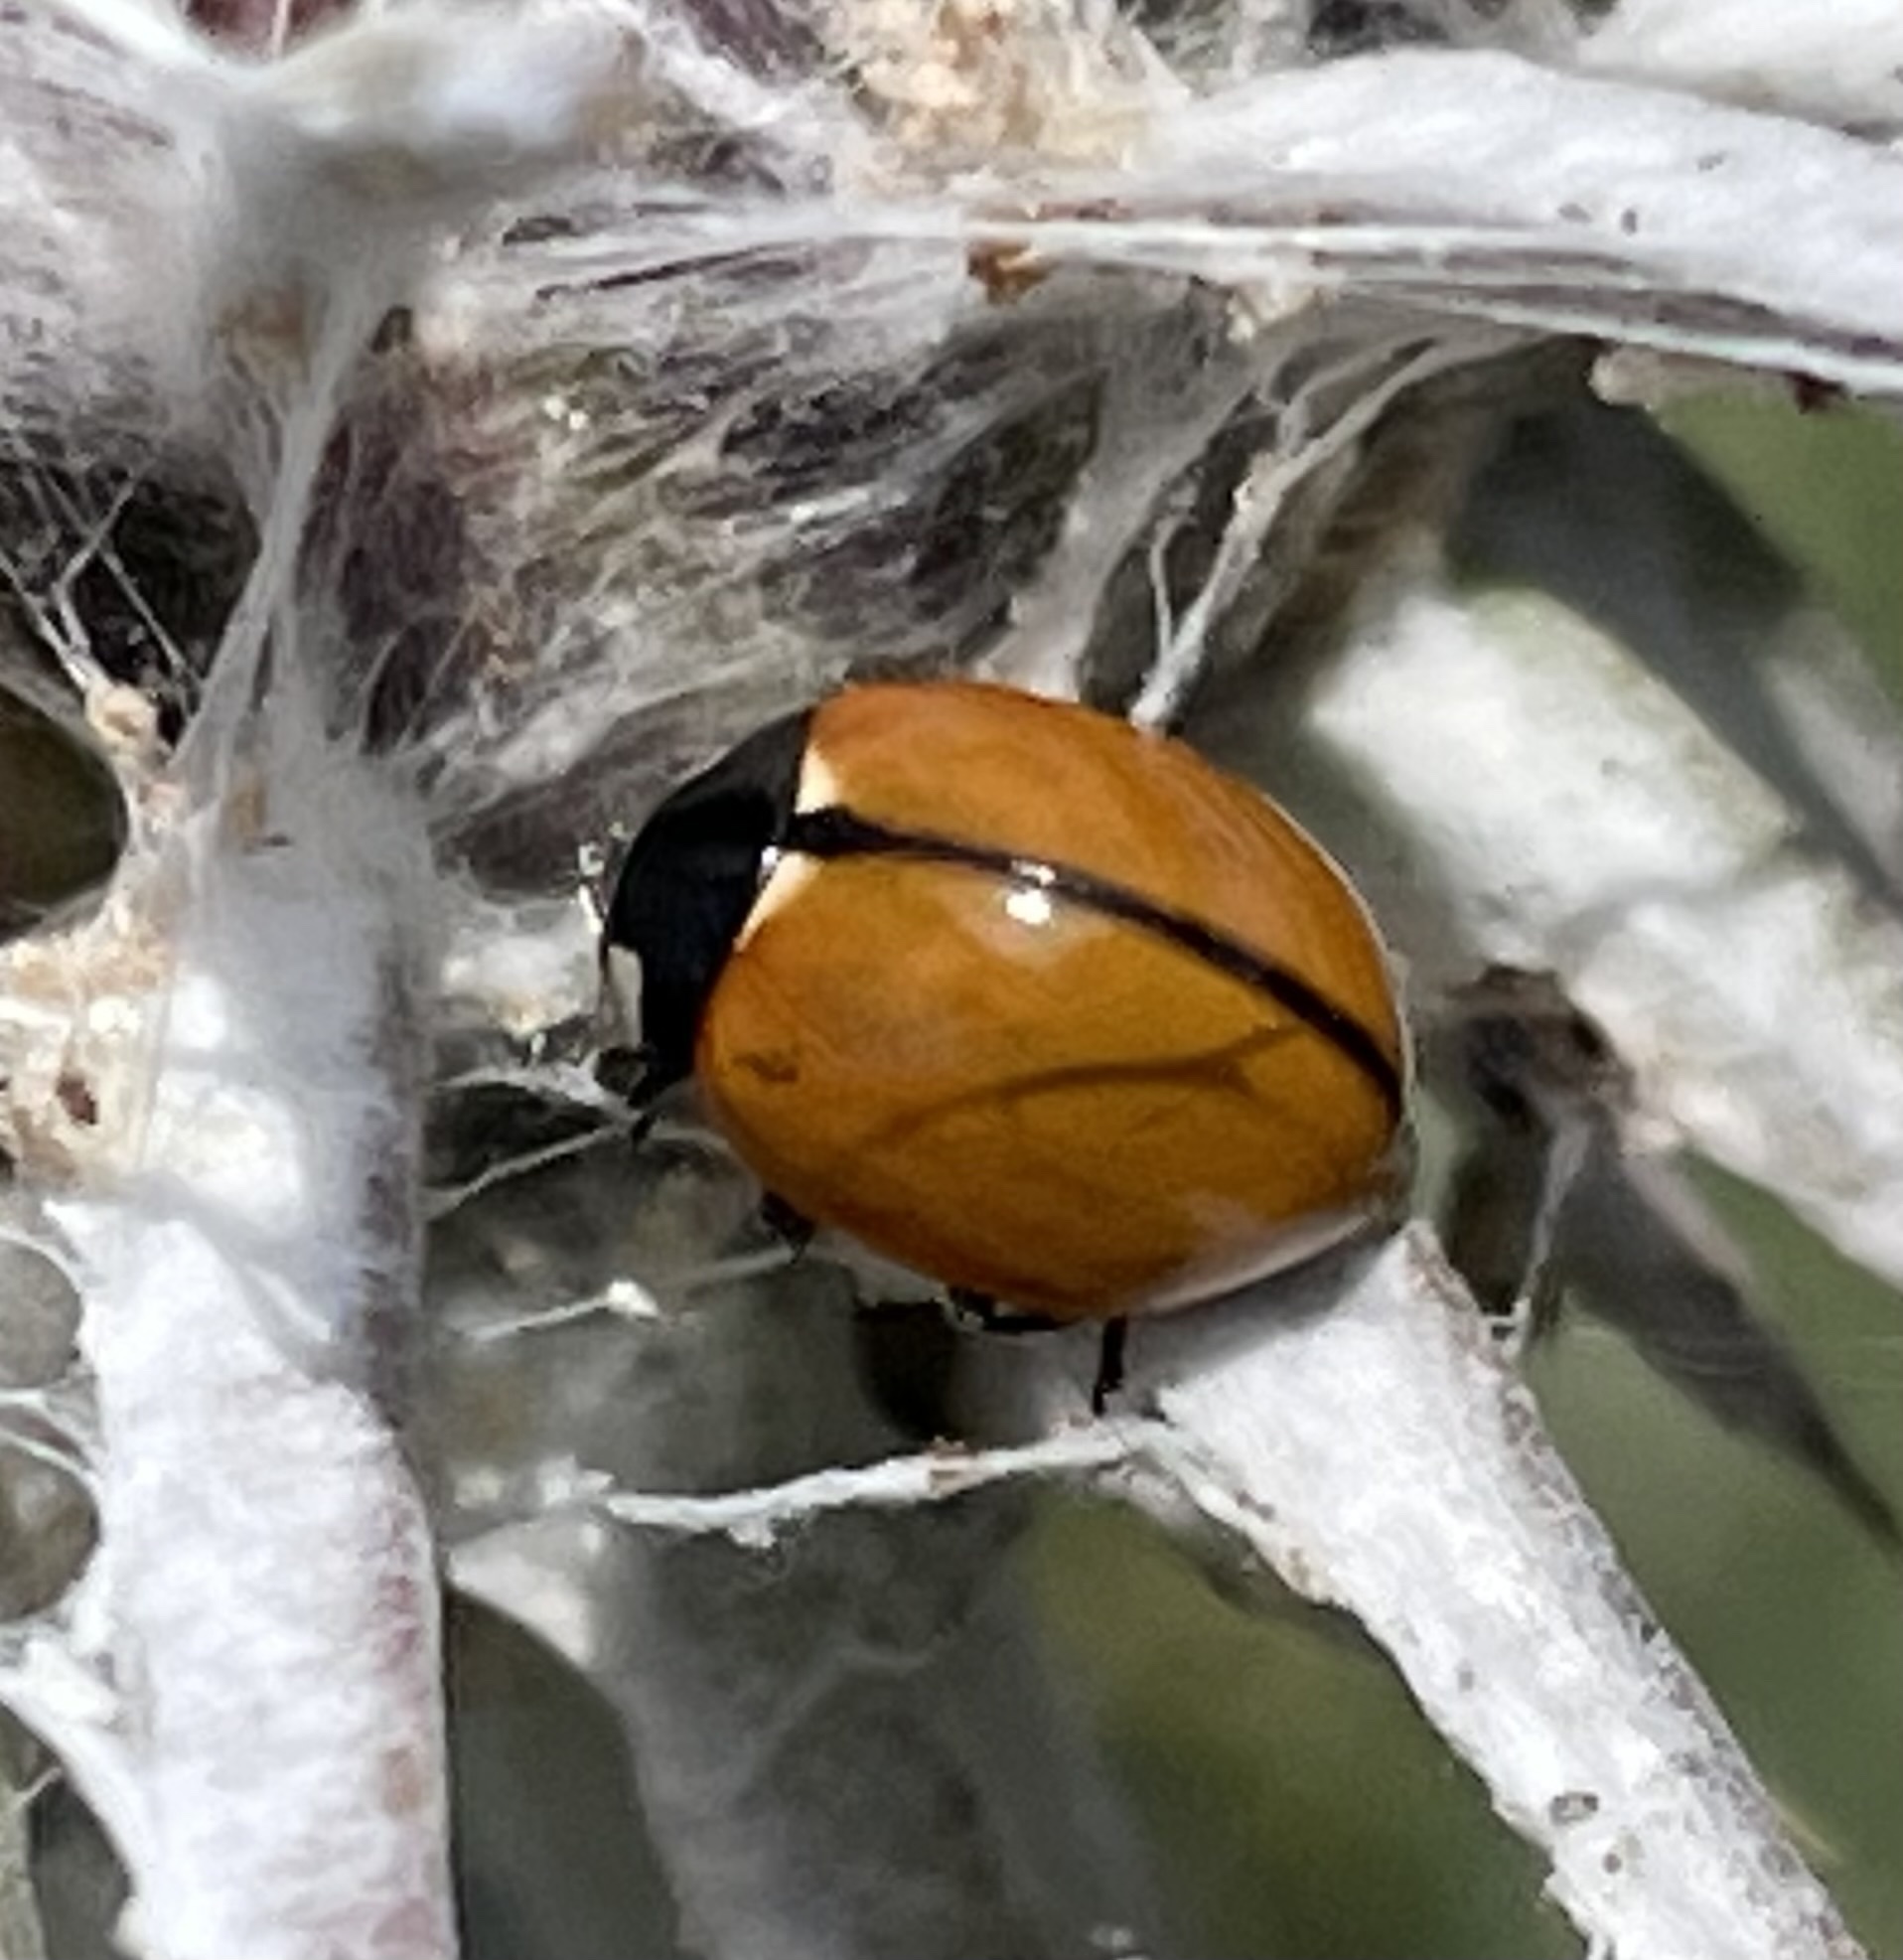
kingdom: Animalia
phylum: Arthropoda
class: Insecta
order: Coleoptera
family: Coccinellidae
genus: Coccinella
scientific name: Coccinella californica
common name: Lady beetle
